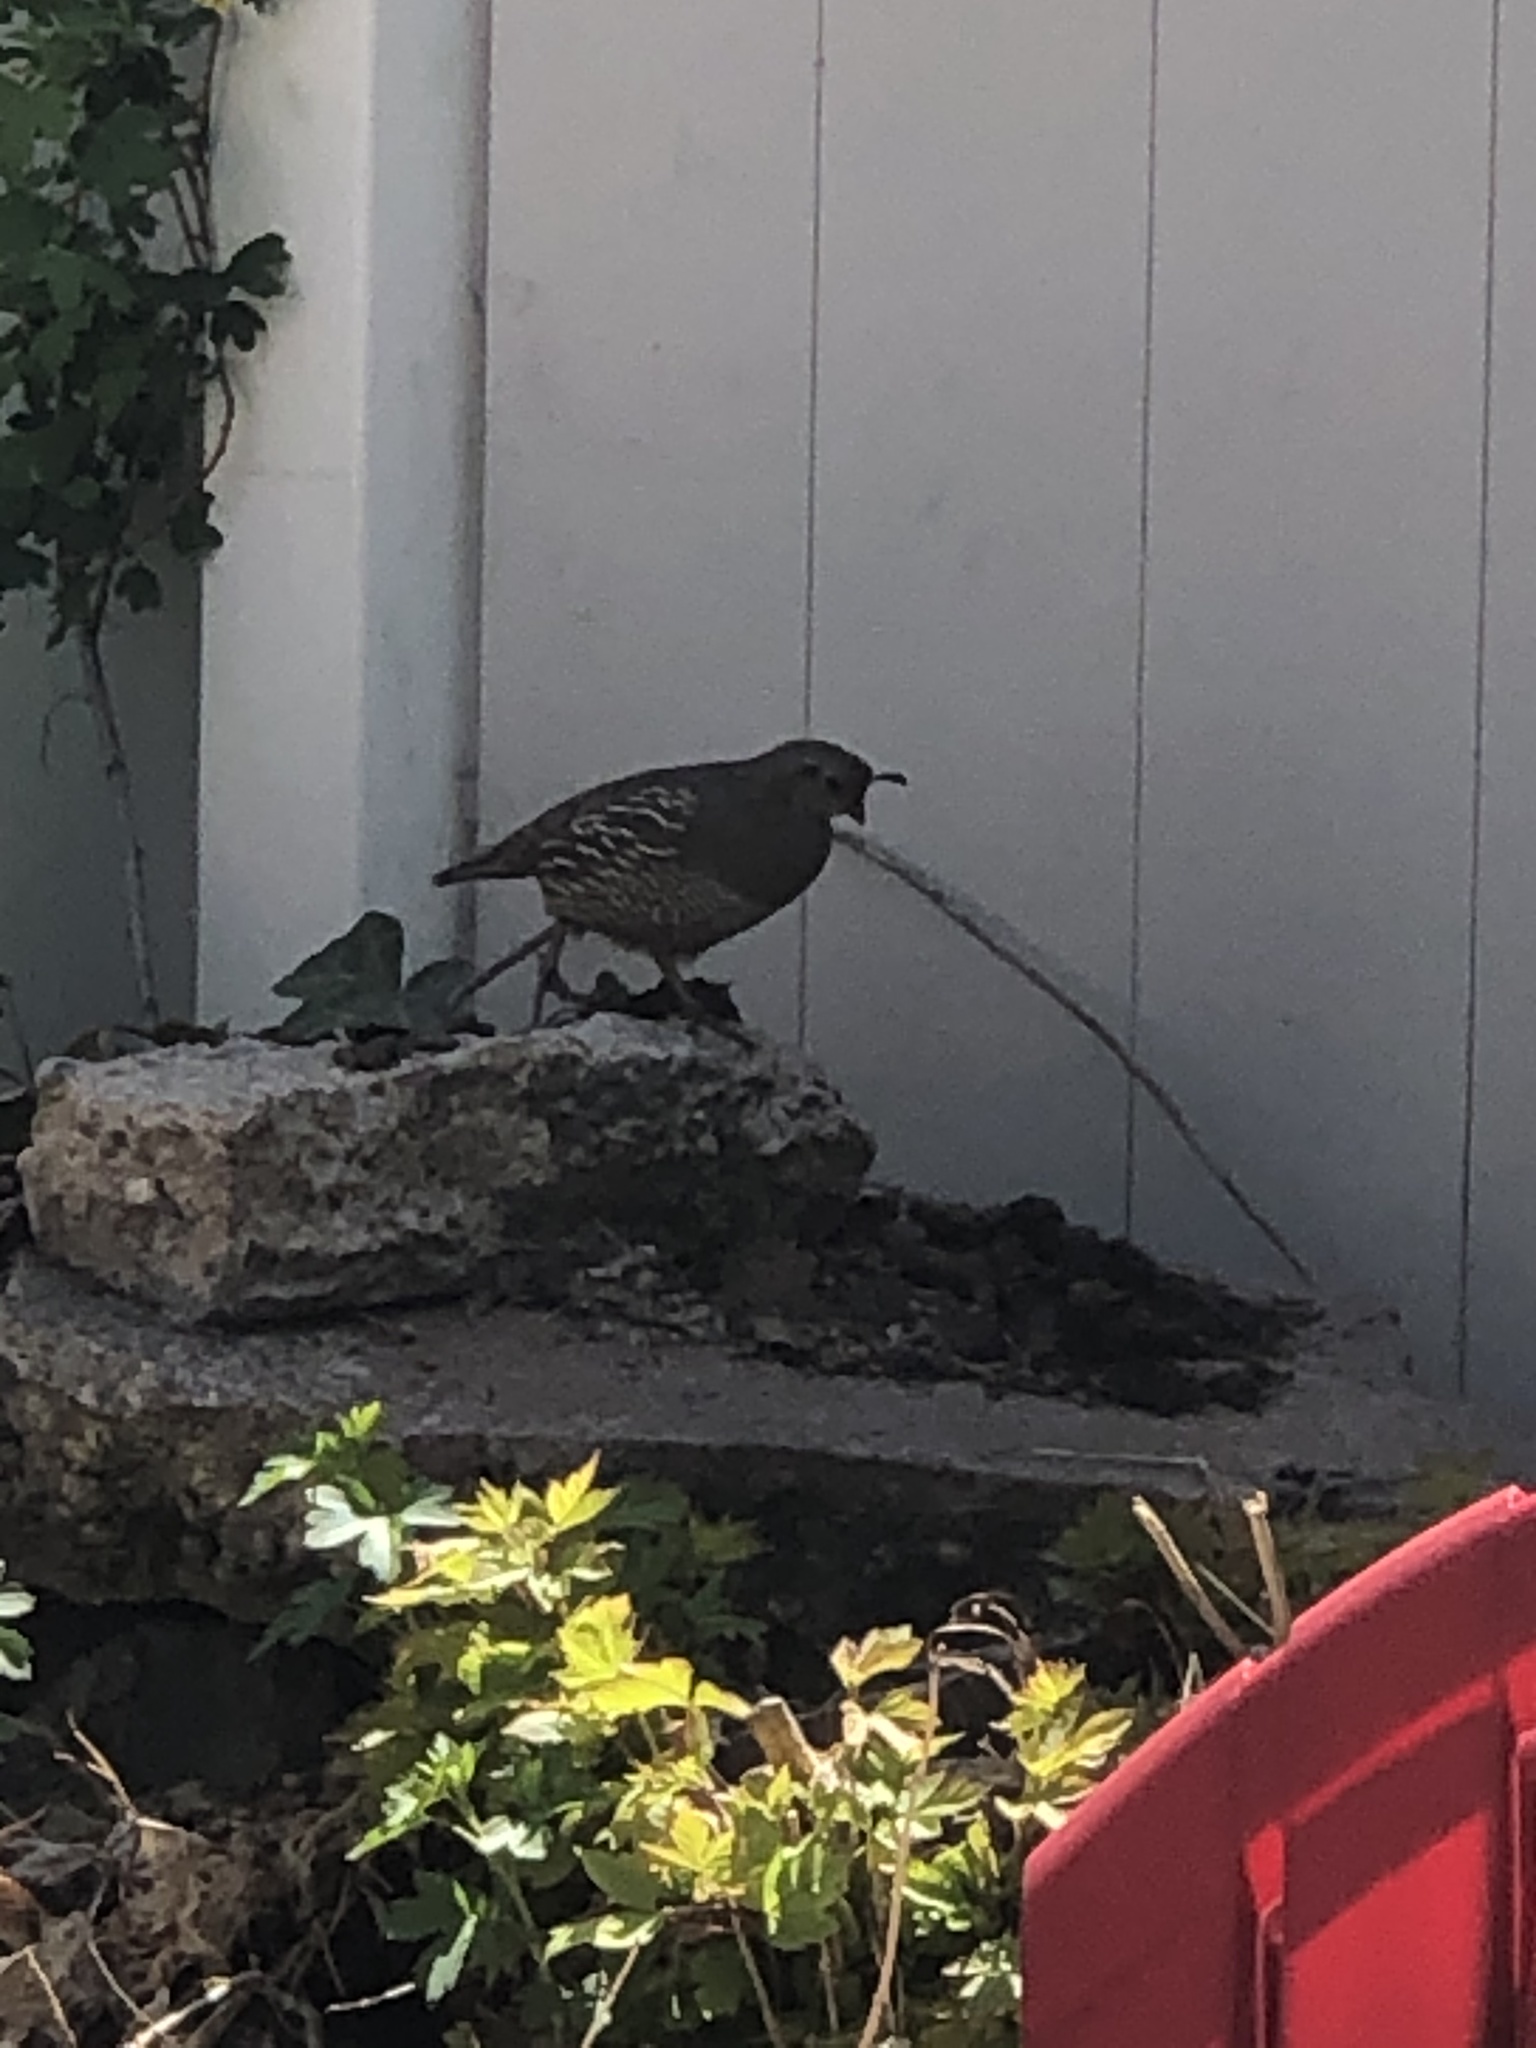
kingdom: Animalia
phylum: Chordata
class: Aves
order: Galliformes
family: Odontophoridae
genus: Callipepla
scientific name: Callipepla californica
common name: California quail
